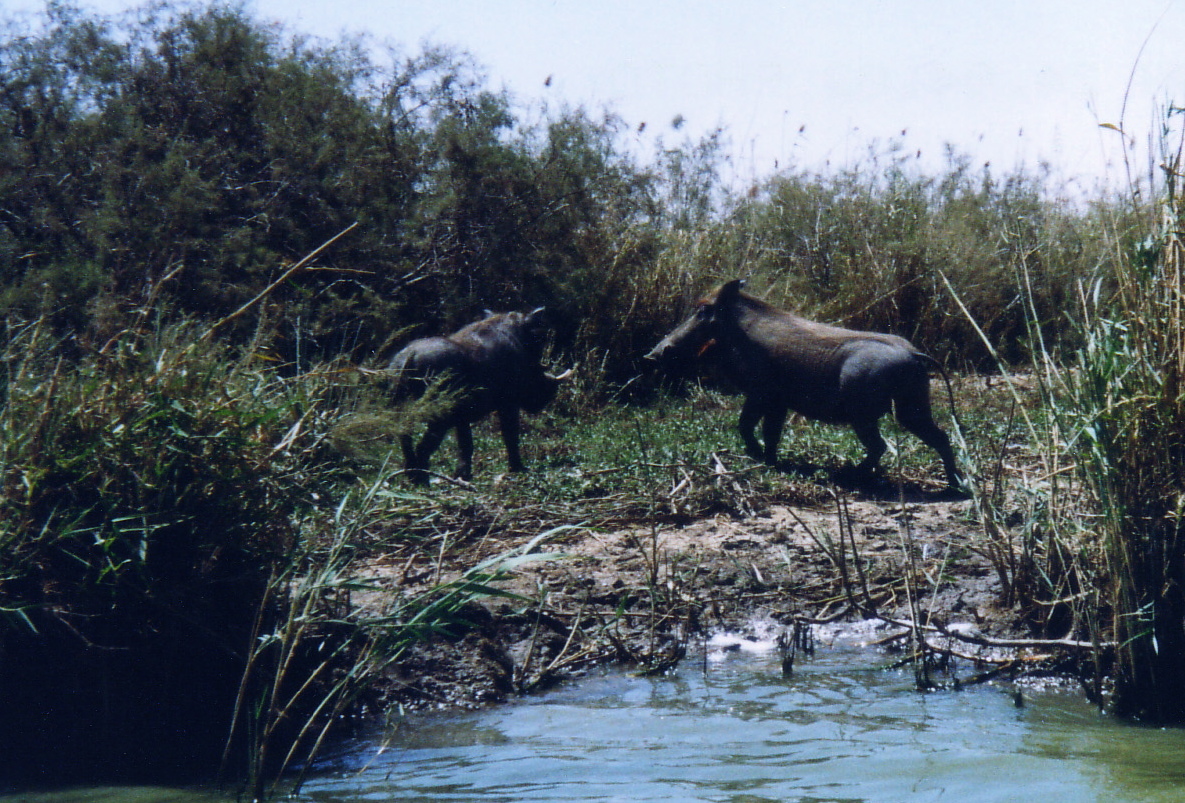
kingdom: Animalia
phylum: Chordata
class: Mammalia
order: Artiodactyla
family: Suidae
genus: Phacochoerus
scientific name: Phacochoerus africanus
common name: Common warthog
